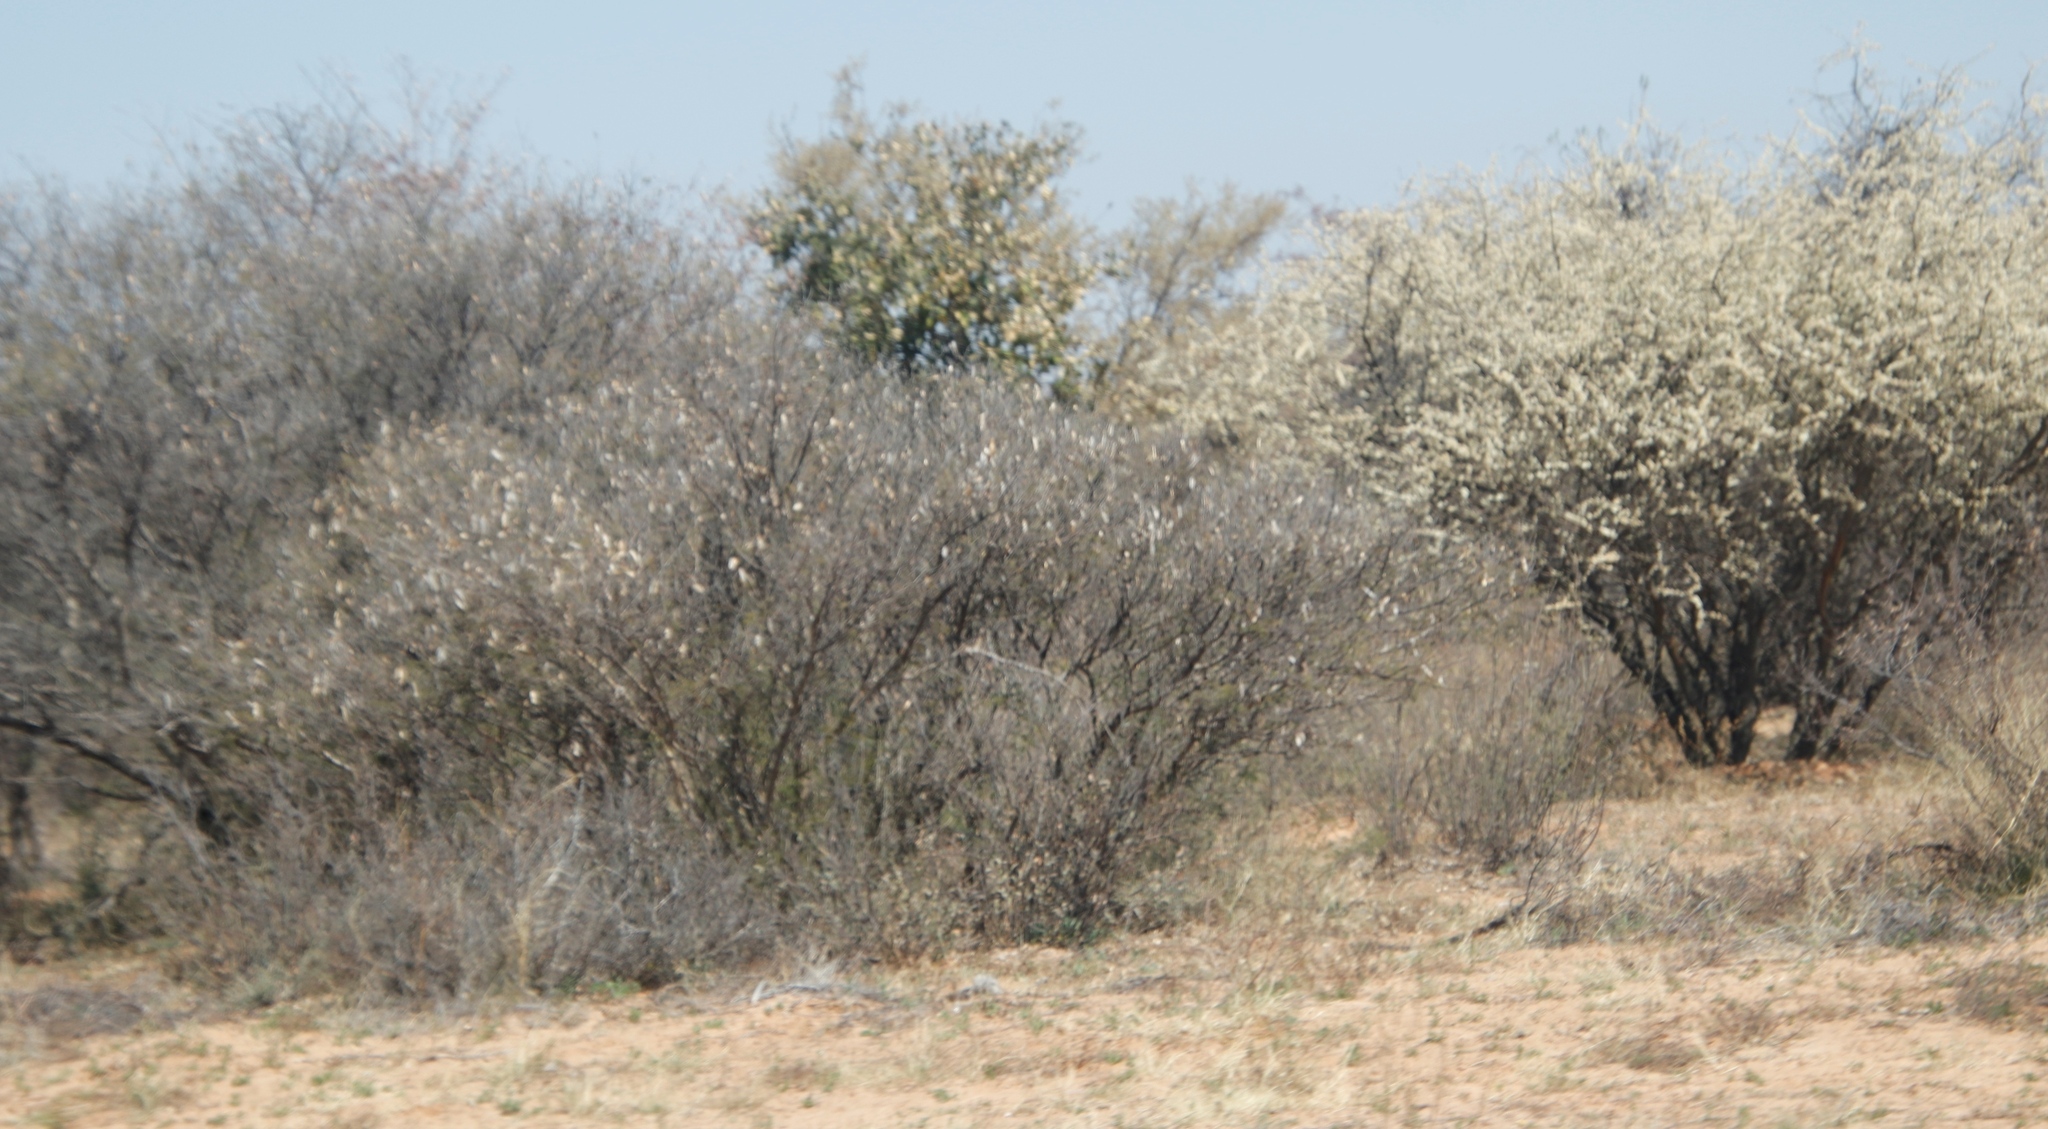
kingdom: Plantae
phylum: Tracheophyta
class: Magnoliopsida
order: Fabales
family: Fabaceae
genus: Senegalia
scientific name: Senegalia mellifera
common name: Hookthorn
